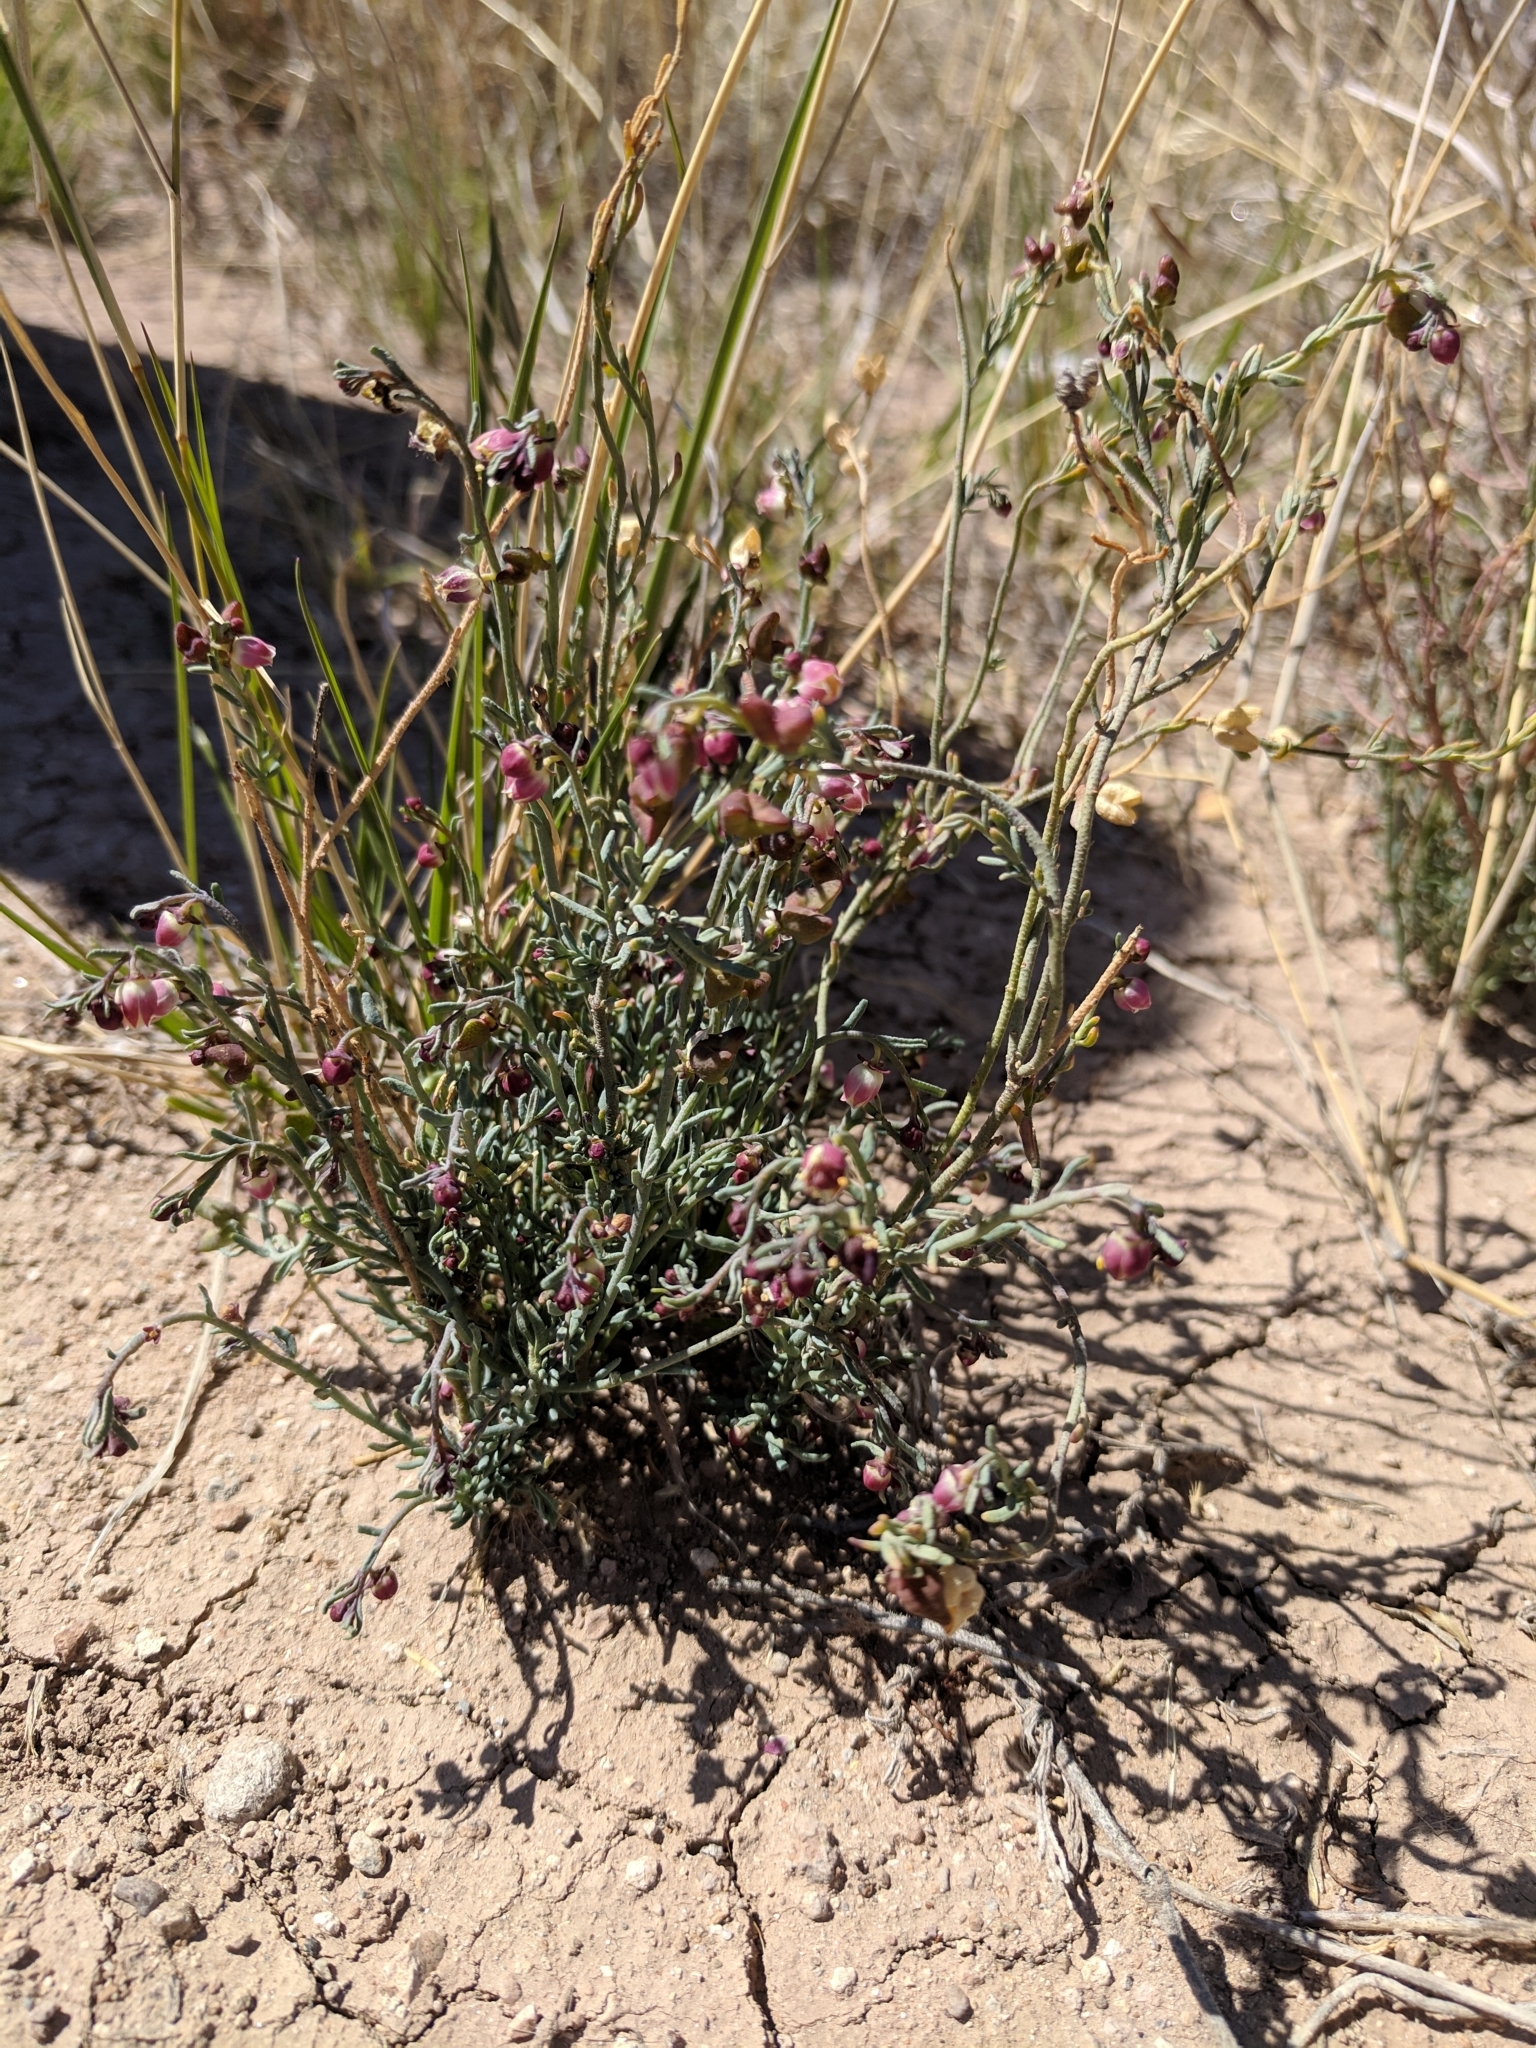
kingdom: Plantae
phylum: Tracheophyta
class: Magnoliopsida
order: Sapindales
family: Rutaceae
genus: Thamnosma
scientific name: Thamnosma texana
